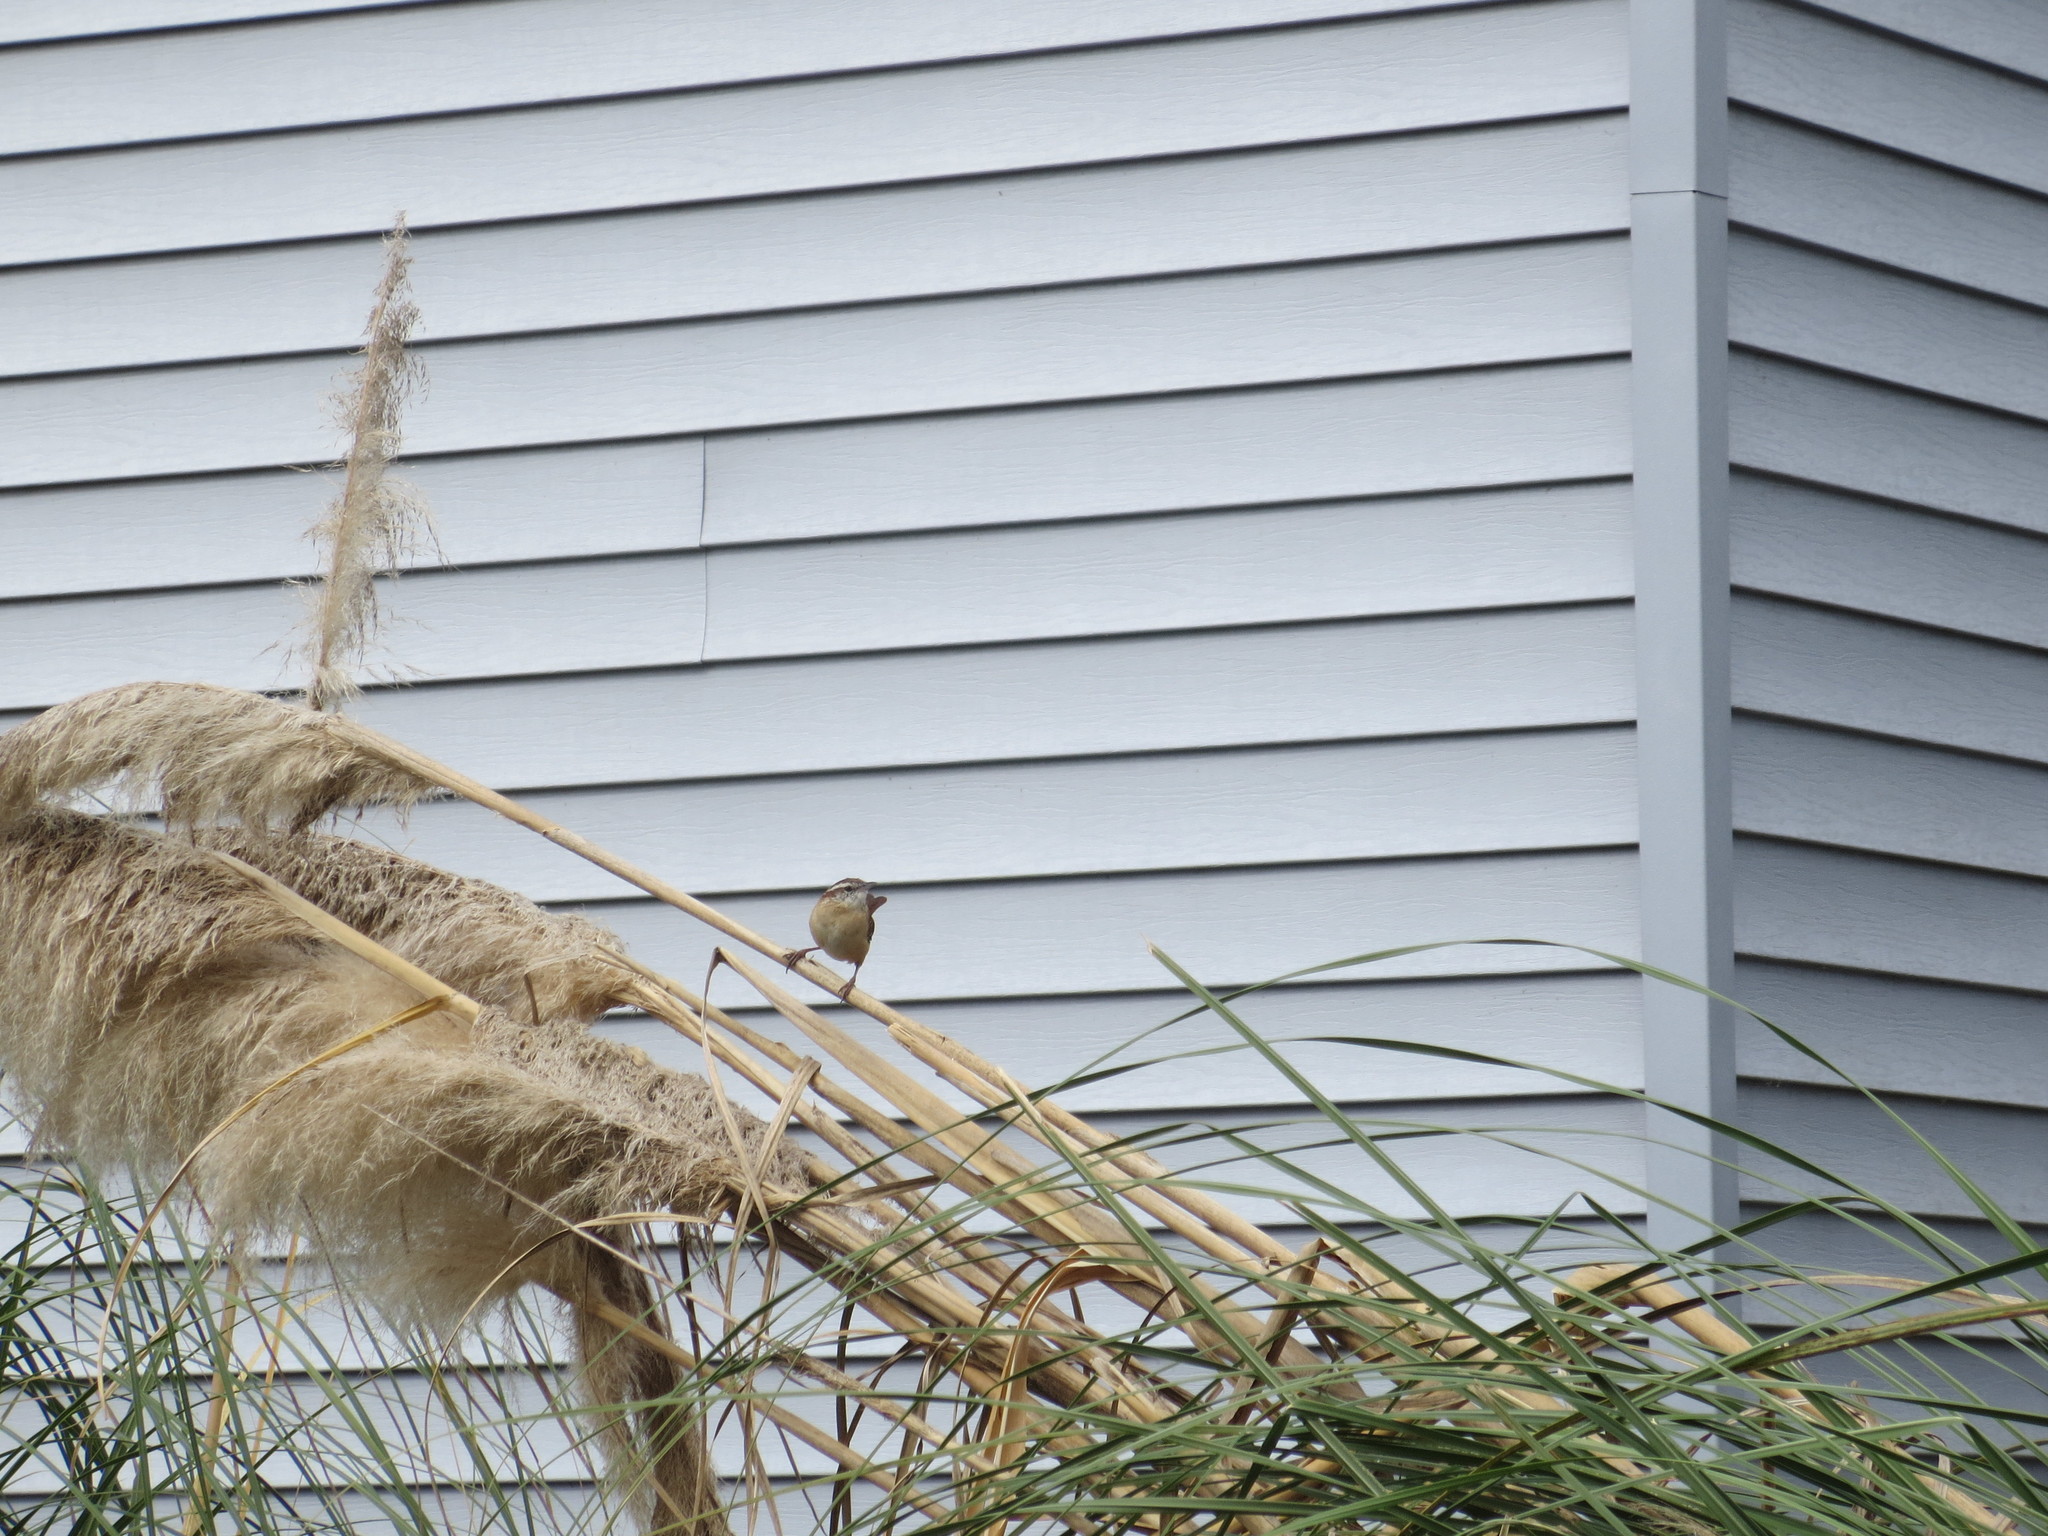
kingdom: Animalia
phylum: Chordata
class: Aves
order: Passeriformes
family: Troglodytidae
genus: Thryothorus
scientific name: Thryothorus ludovicianus
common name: Carolina wren
